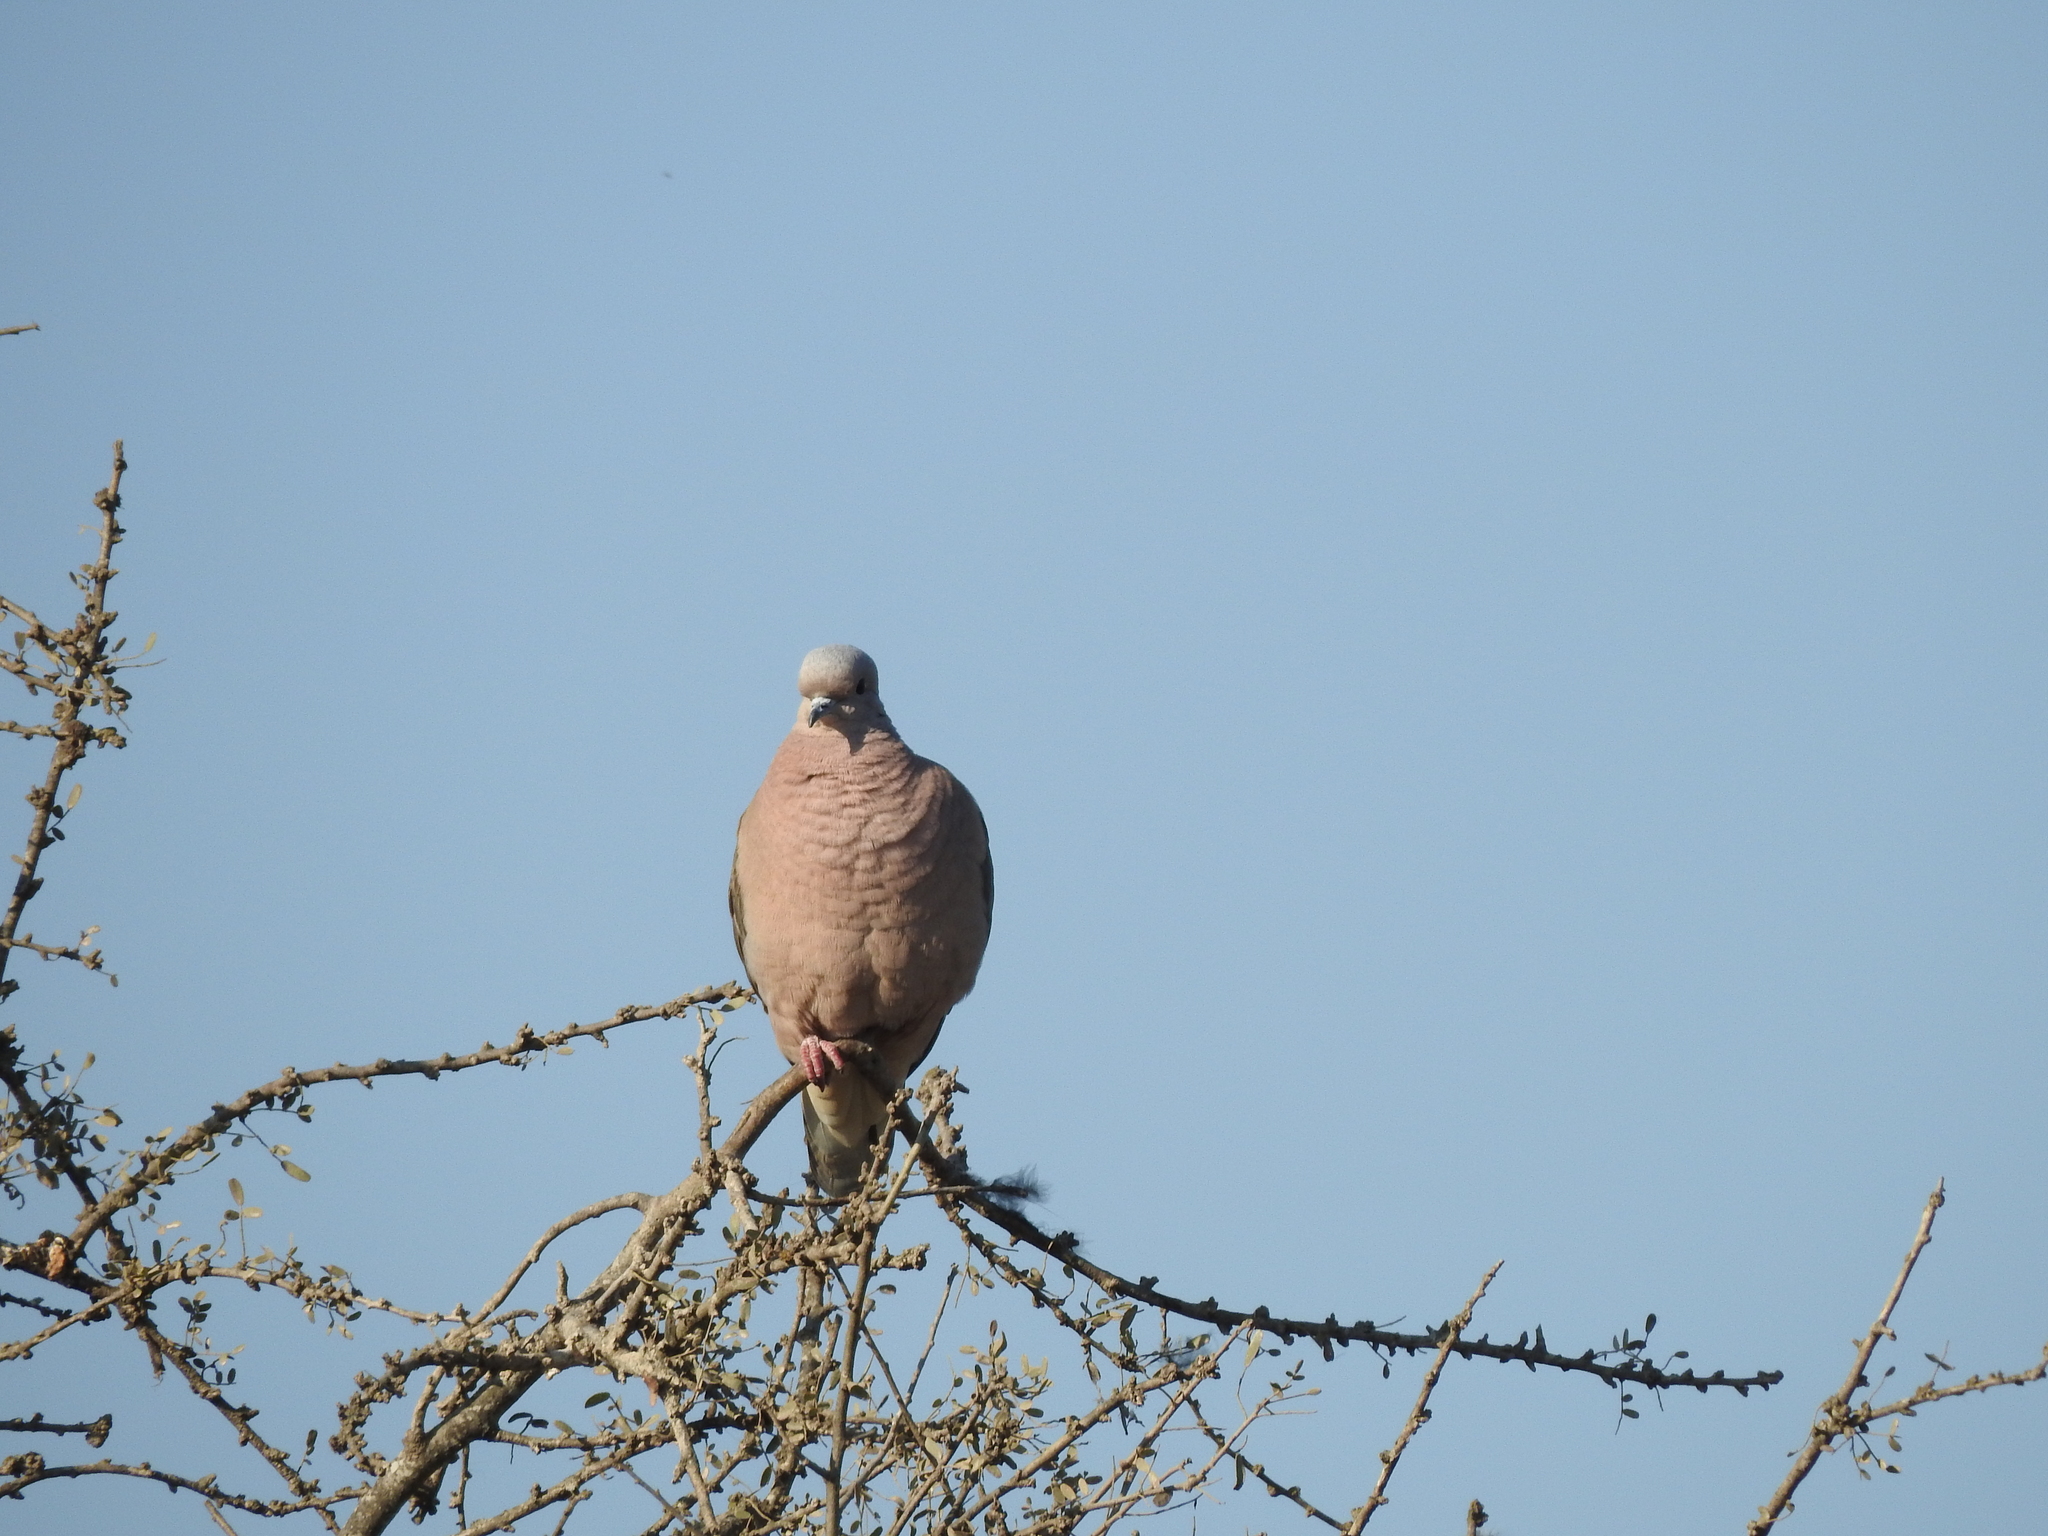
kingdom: Animalia
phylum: Chordata
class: Aves
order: Columbiformes
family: Columbidae
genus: Zenaida
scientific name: Zenaida auriculata
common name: Eared dove
